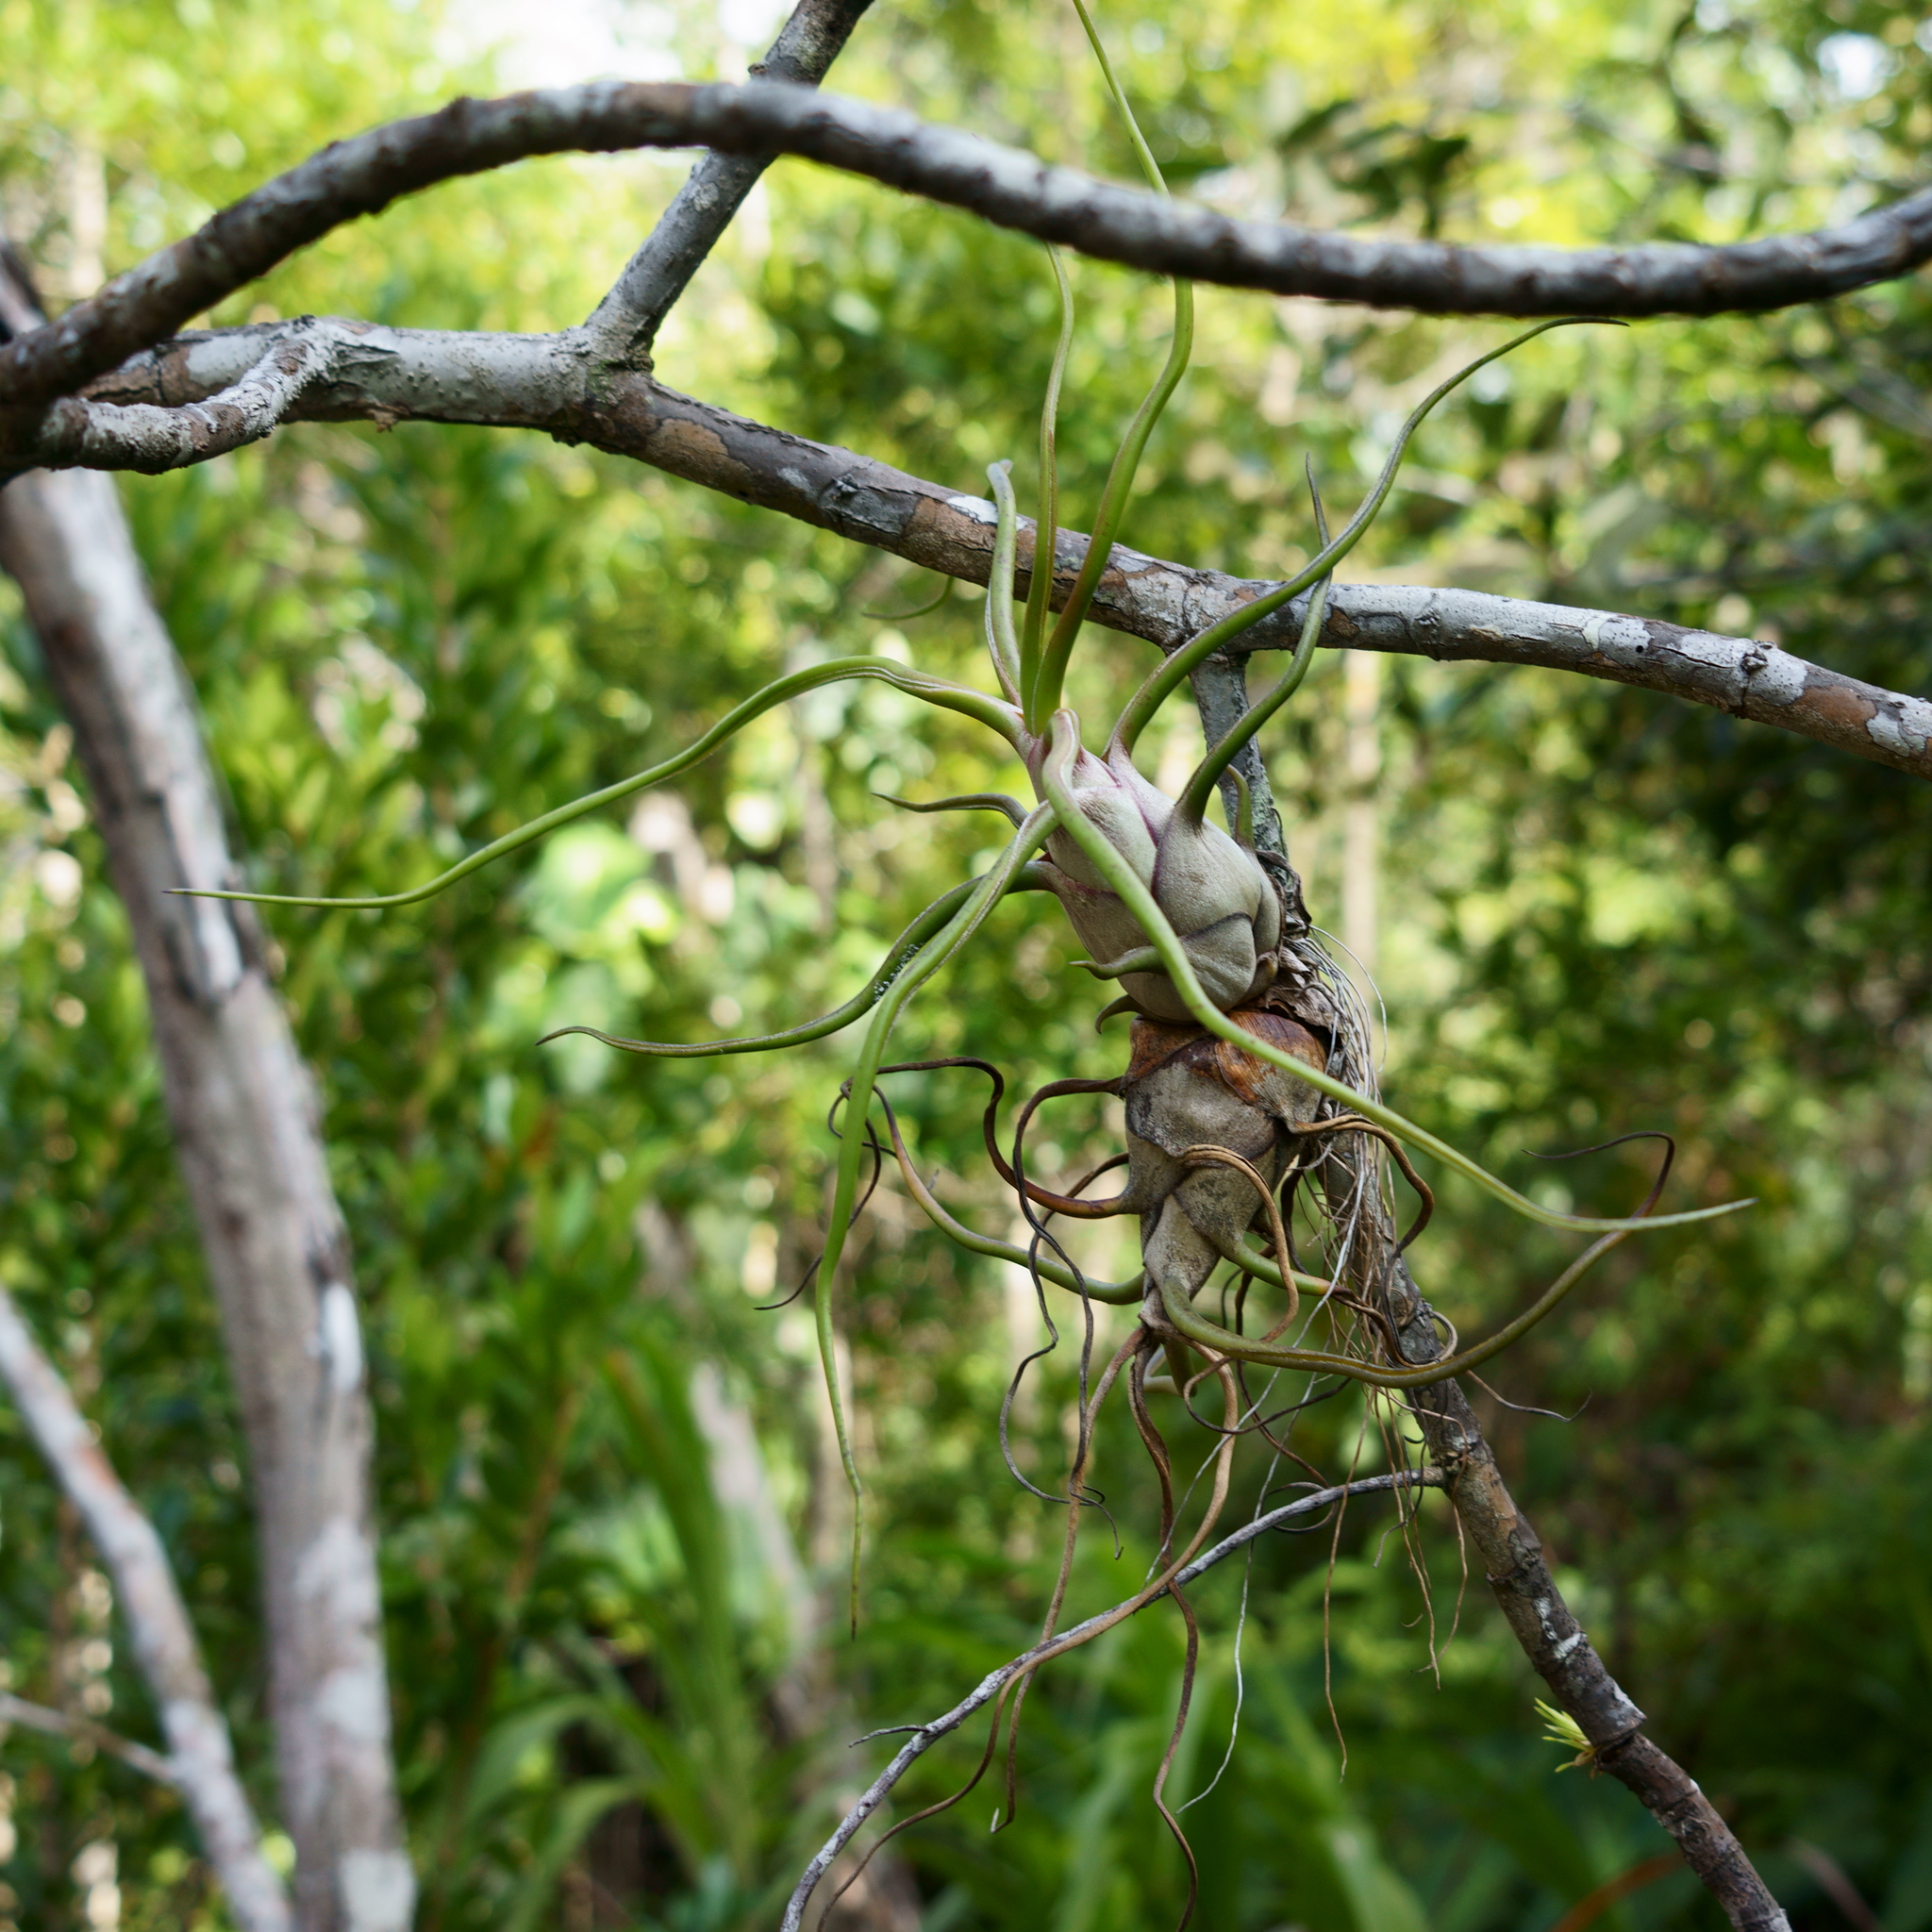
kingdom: Plantae
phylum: Tracheophyta
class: Liliopsida
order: Poales
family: Bromeliaceae
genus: Tillandsia
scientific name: Tillandsia bulbosa
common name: Bulbous airplant
